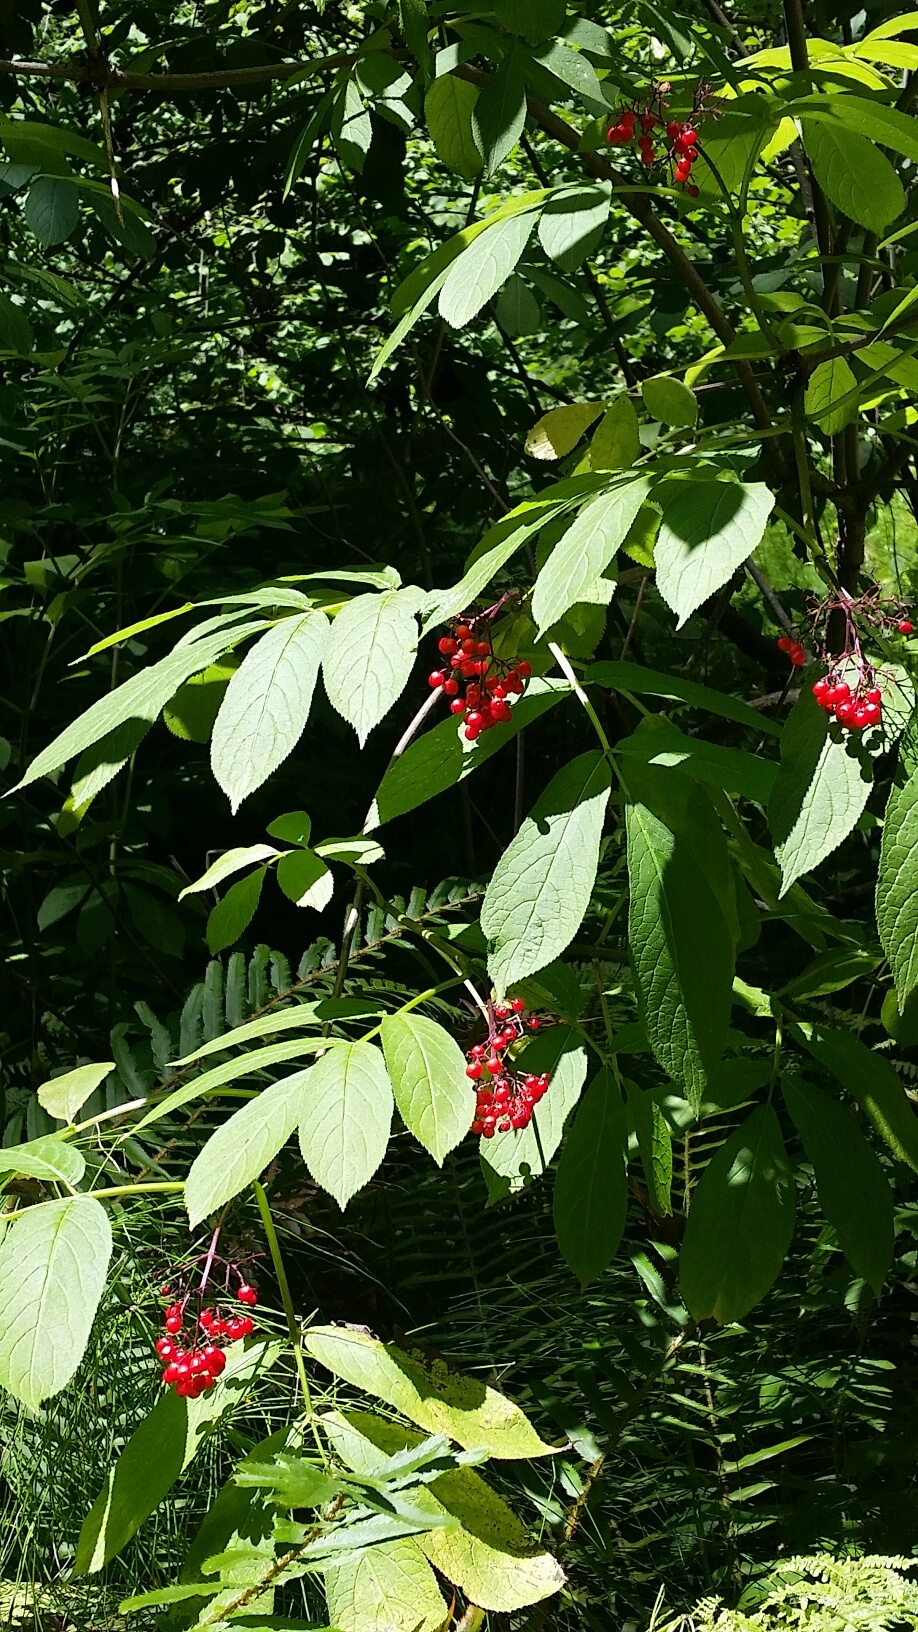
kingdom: Plantae
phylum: Tracheophyta
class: Magnoliopsida
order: Dipsacales
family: Viburnaceae
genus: Sambucus
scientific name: Sambucus racemosa
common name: Red-berried elder
